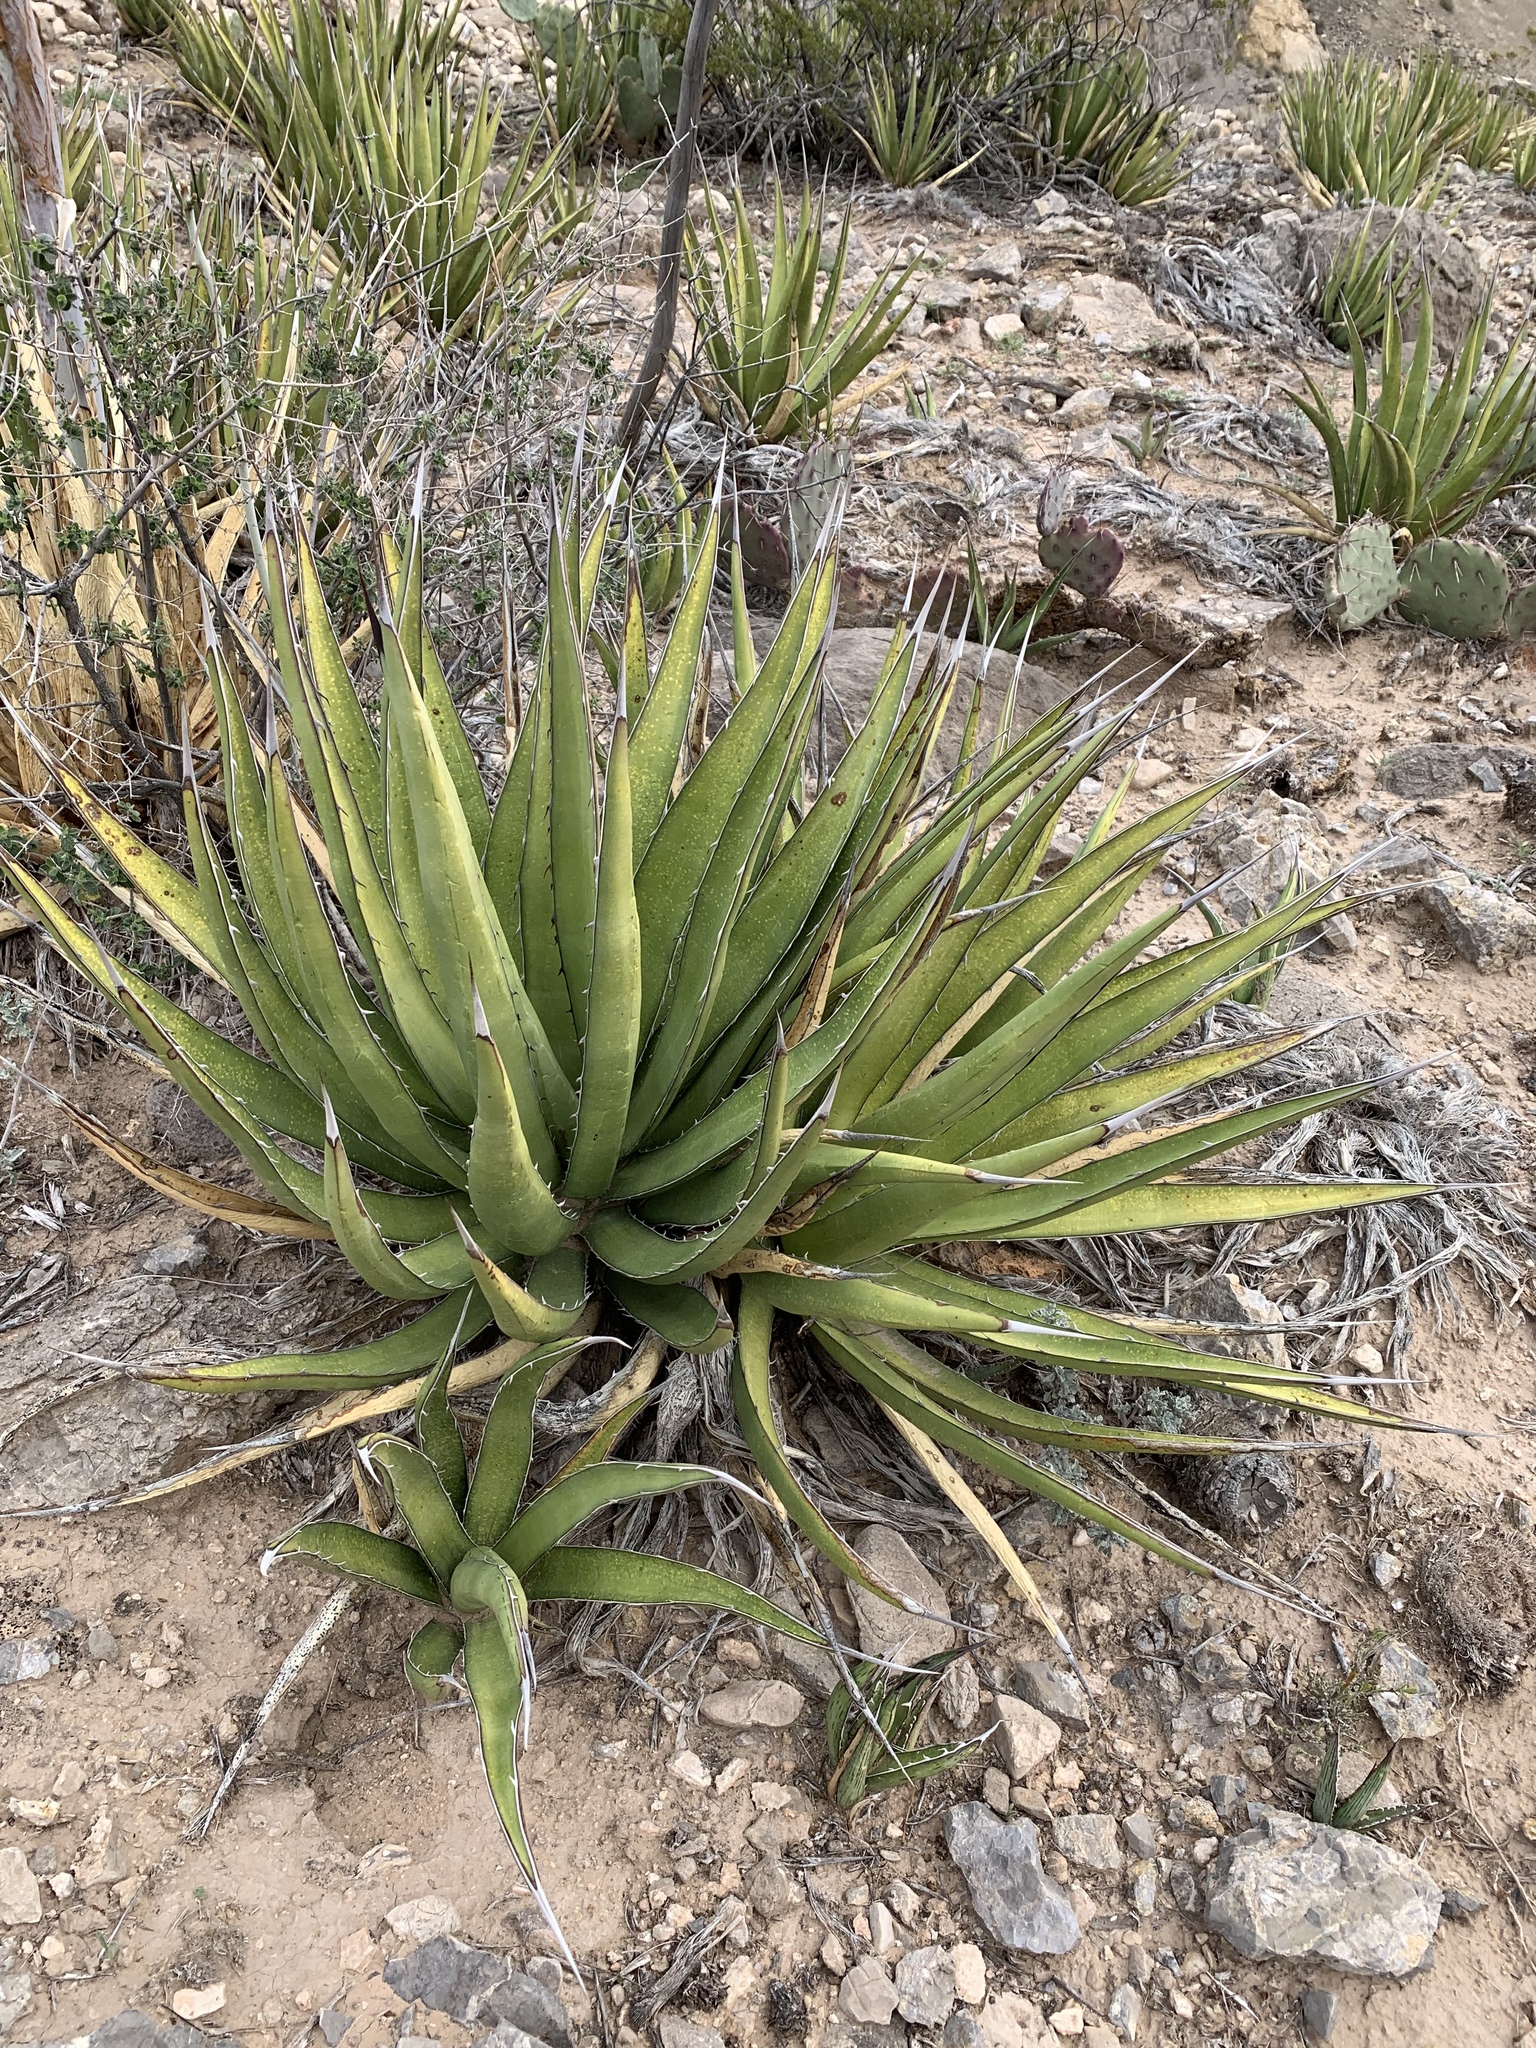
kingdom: Plantae
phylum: Tracheophyta
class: Liliopsida
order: Asparagales
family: Asparagaceae
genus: Agave
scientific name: Agave lechuguilla
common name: Lecheguilla agave
